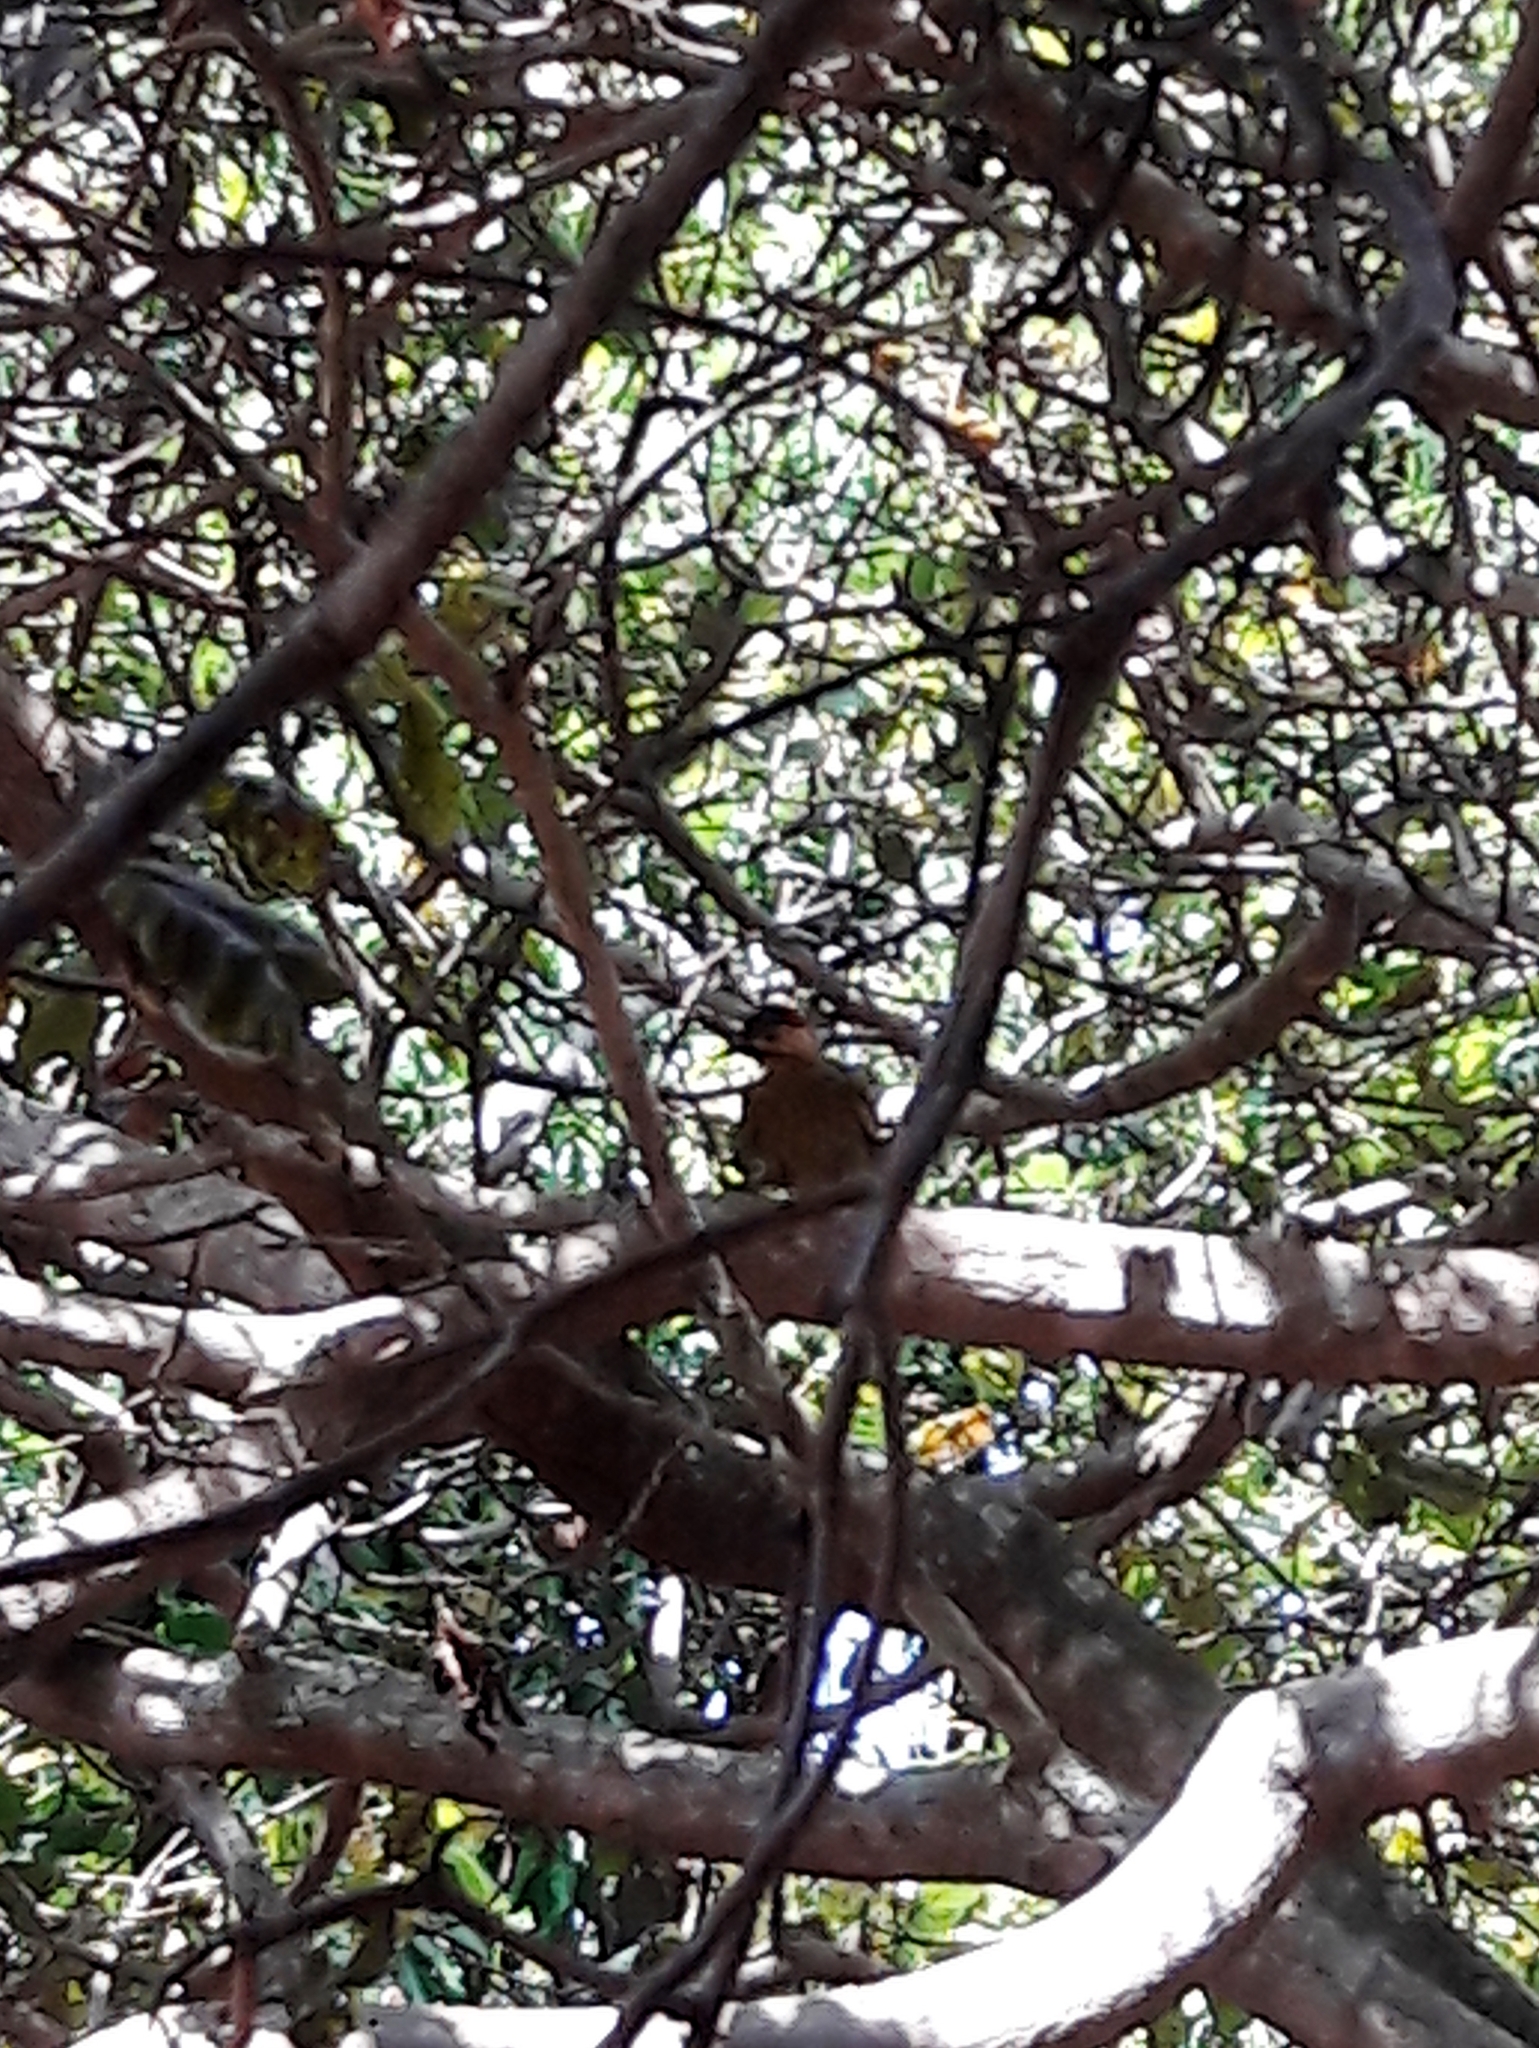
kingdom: Animalia
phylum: Chordata
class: Aves
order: Piciformes
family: Picidae
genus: Colaptes
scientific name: Colaptes melanochloros
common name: Green-barred woodpecker
